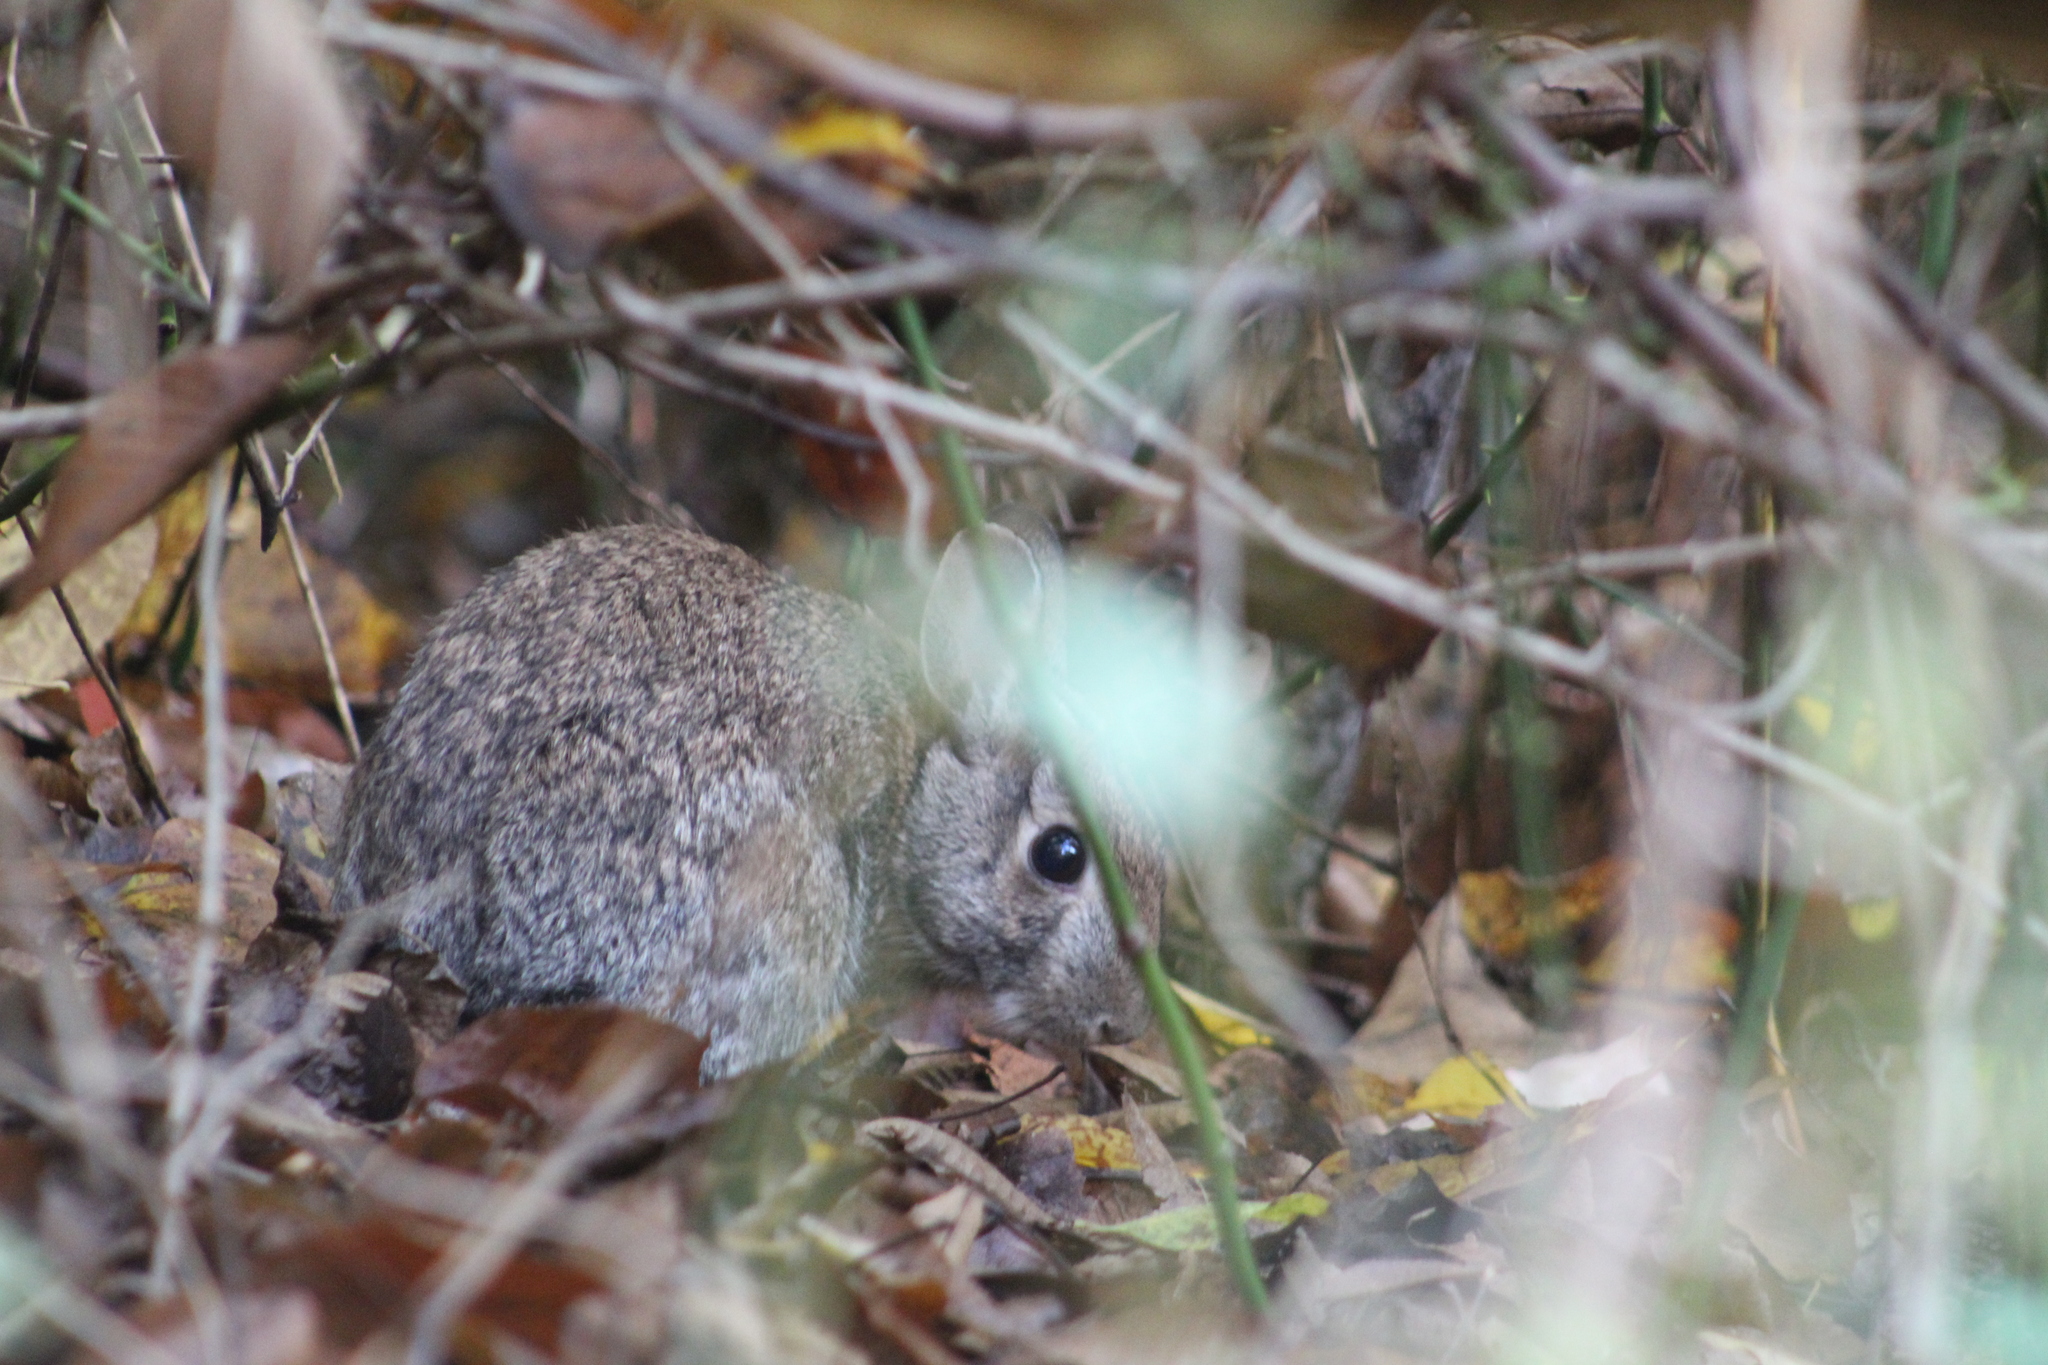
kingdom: Animalia
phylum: Chordata
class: Mammalia
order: Lagomorpha
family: Leporidae
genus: Sylvilagus
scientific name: Sylvilagus floridanus
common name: Eastern cottontail
